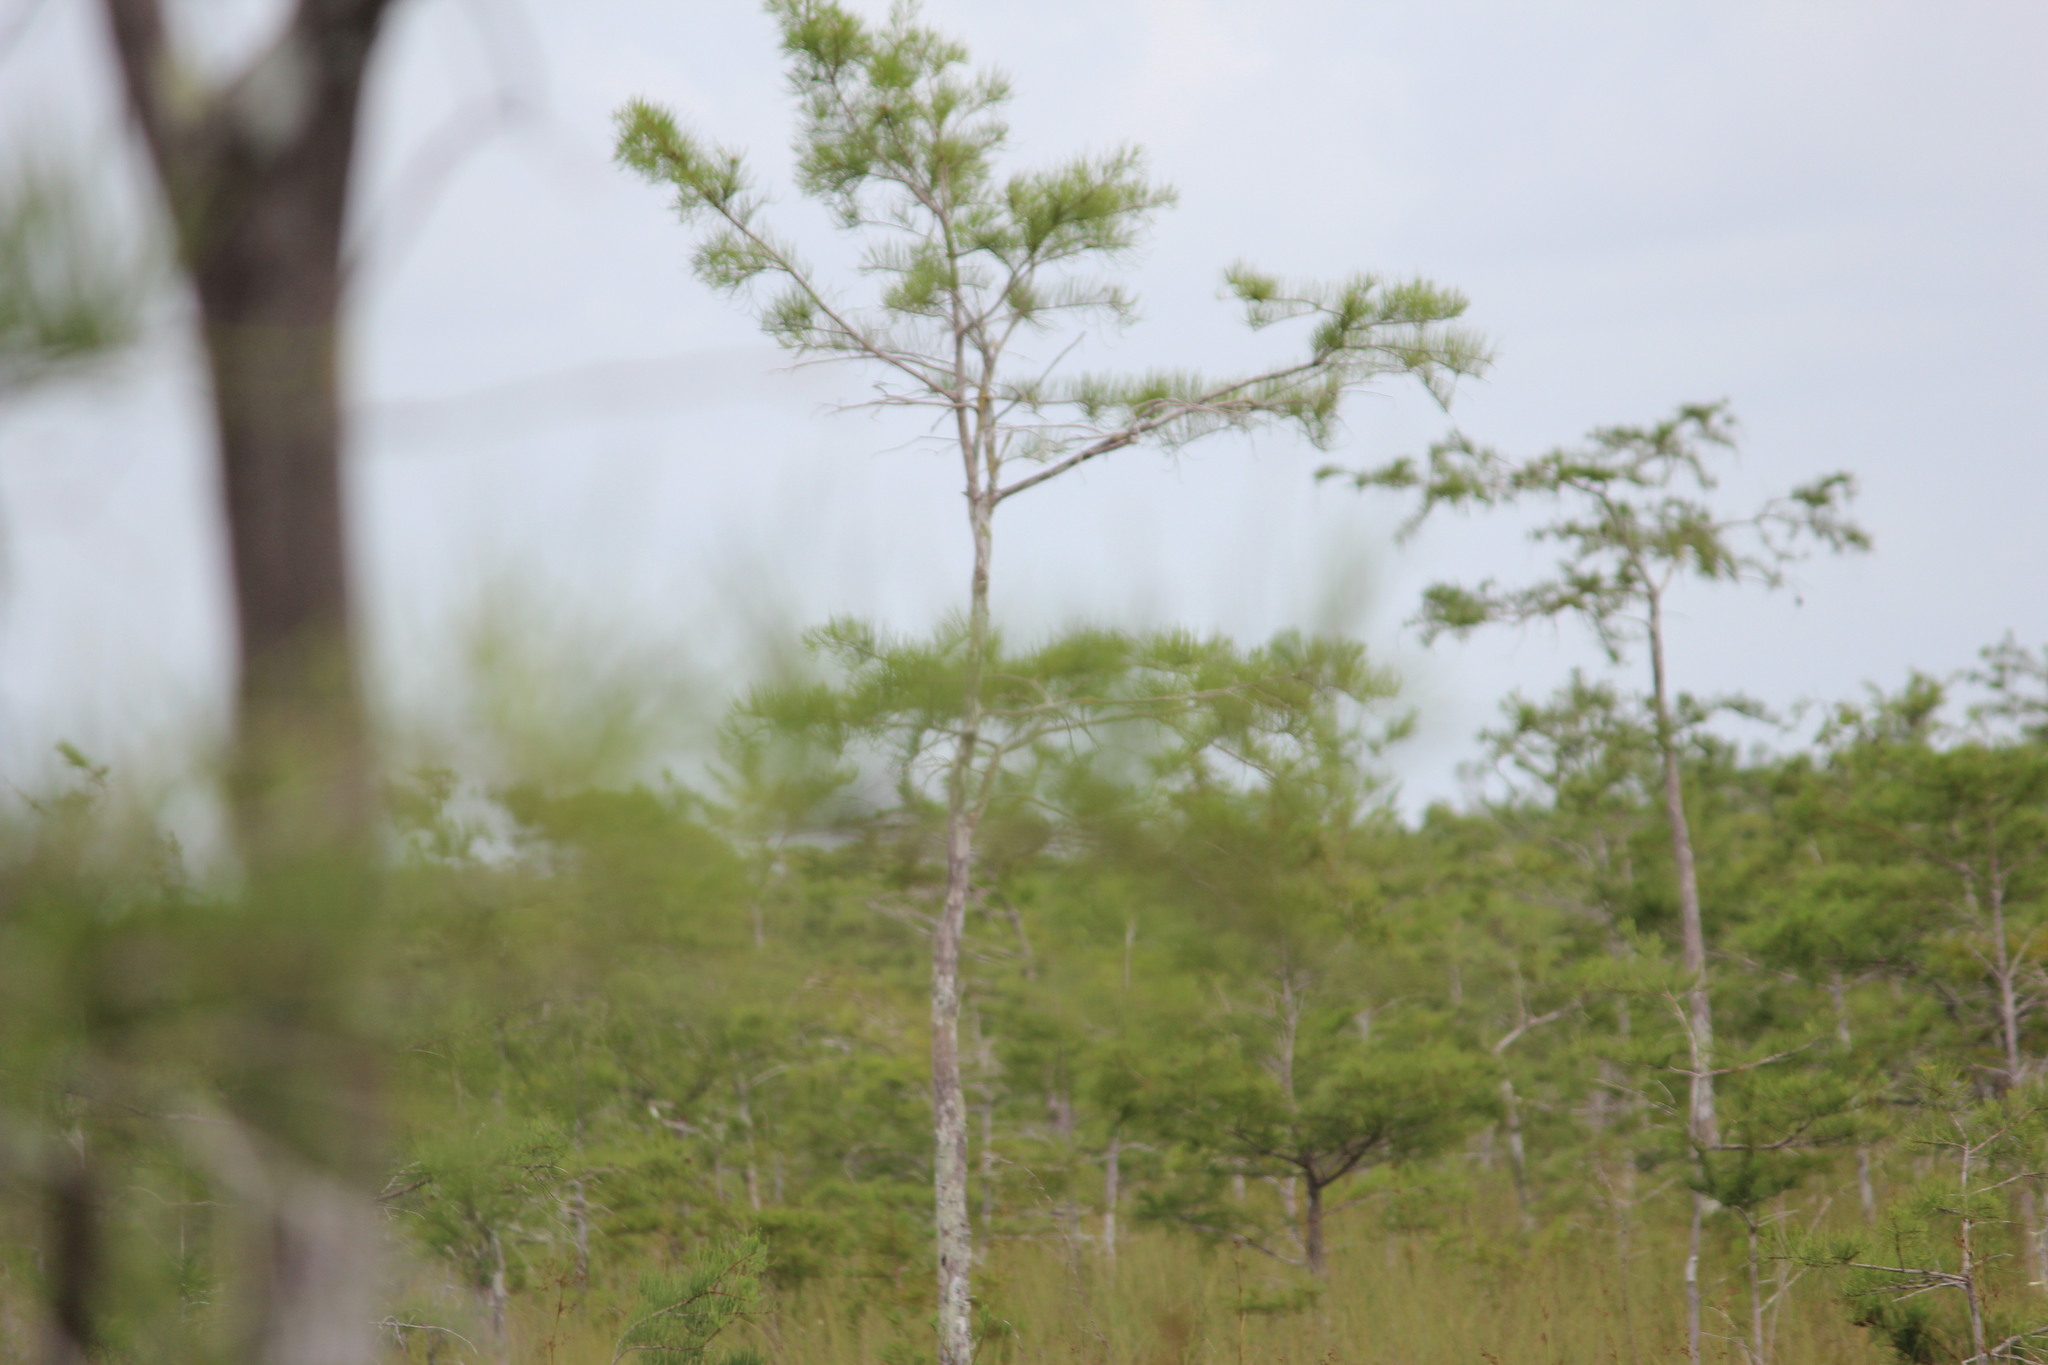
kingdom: Plantae
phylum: Tracheophyta
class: Pinopsida
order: Pinales
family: Cupressaceae
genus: Taxodium
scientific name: Taxodium distichum
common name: Bald cypress
